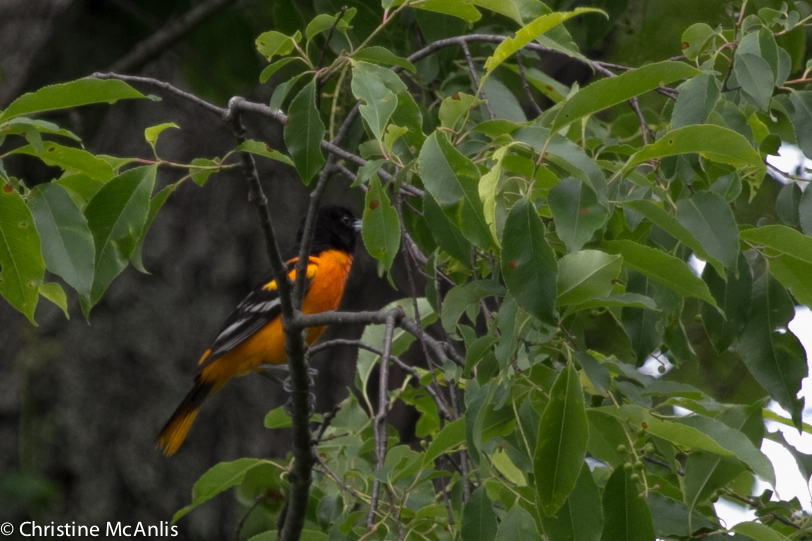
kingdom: Animalia
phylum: Chordata
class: Aves
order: Passeriformes
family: Icteridae
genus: Icterus
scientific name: Icterus galbula
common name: Baltimore oriole
